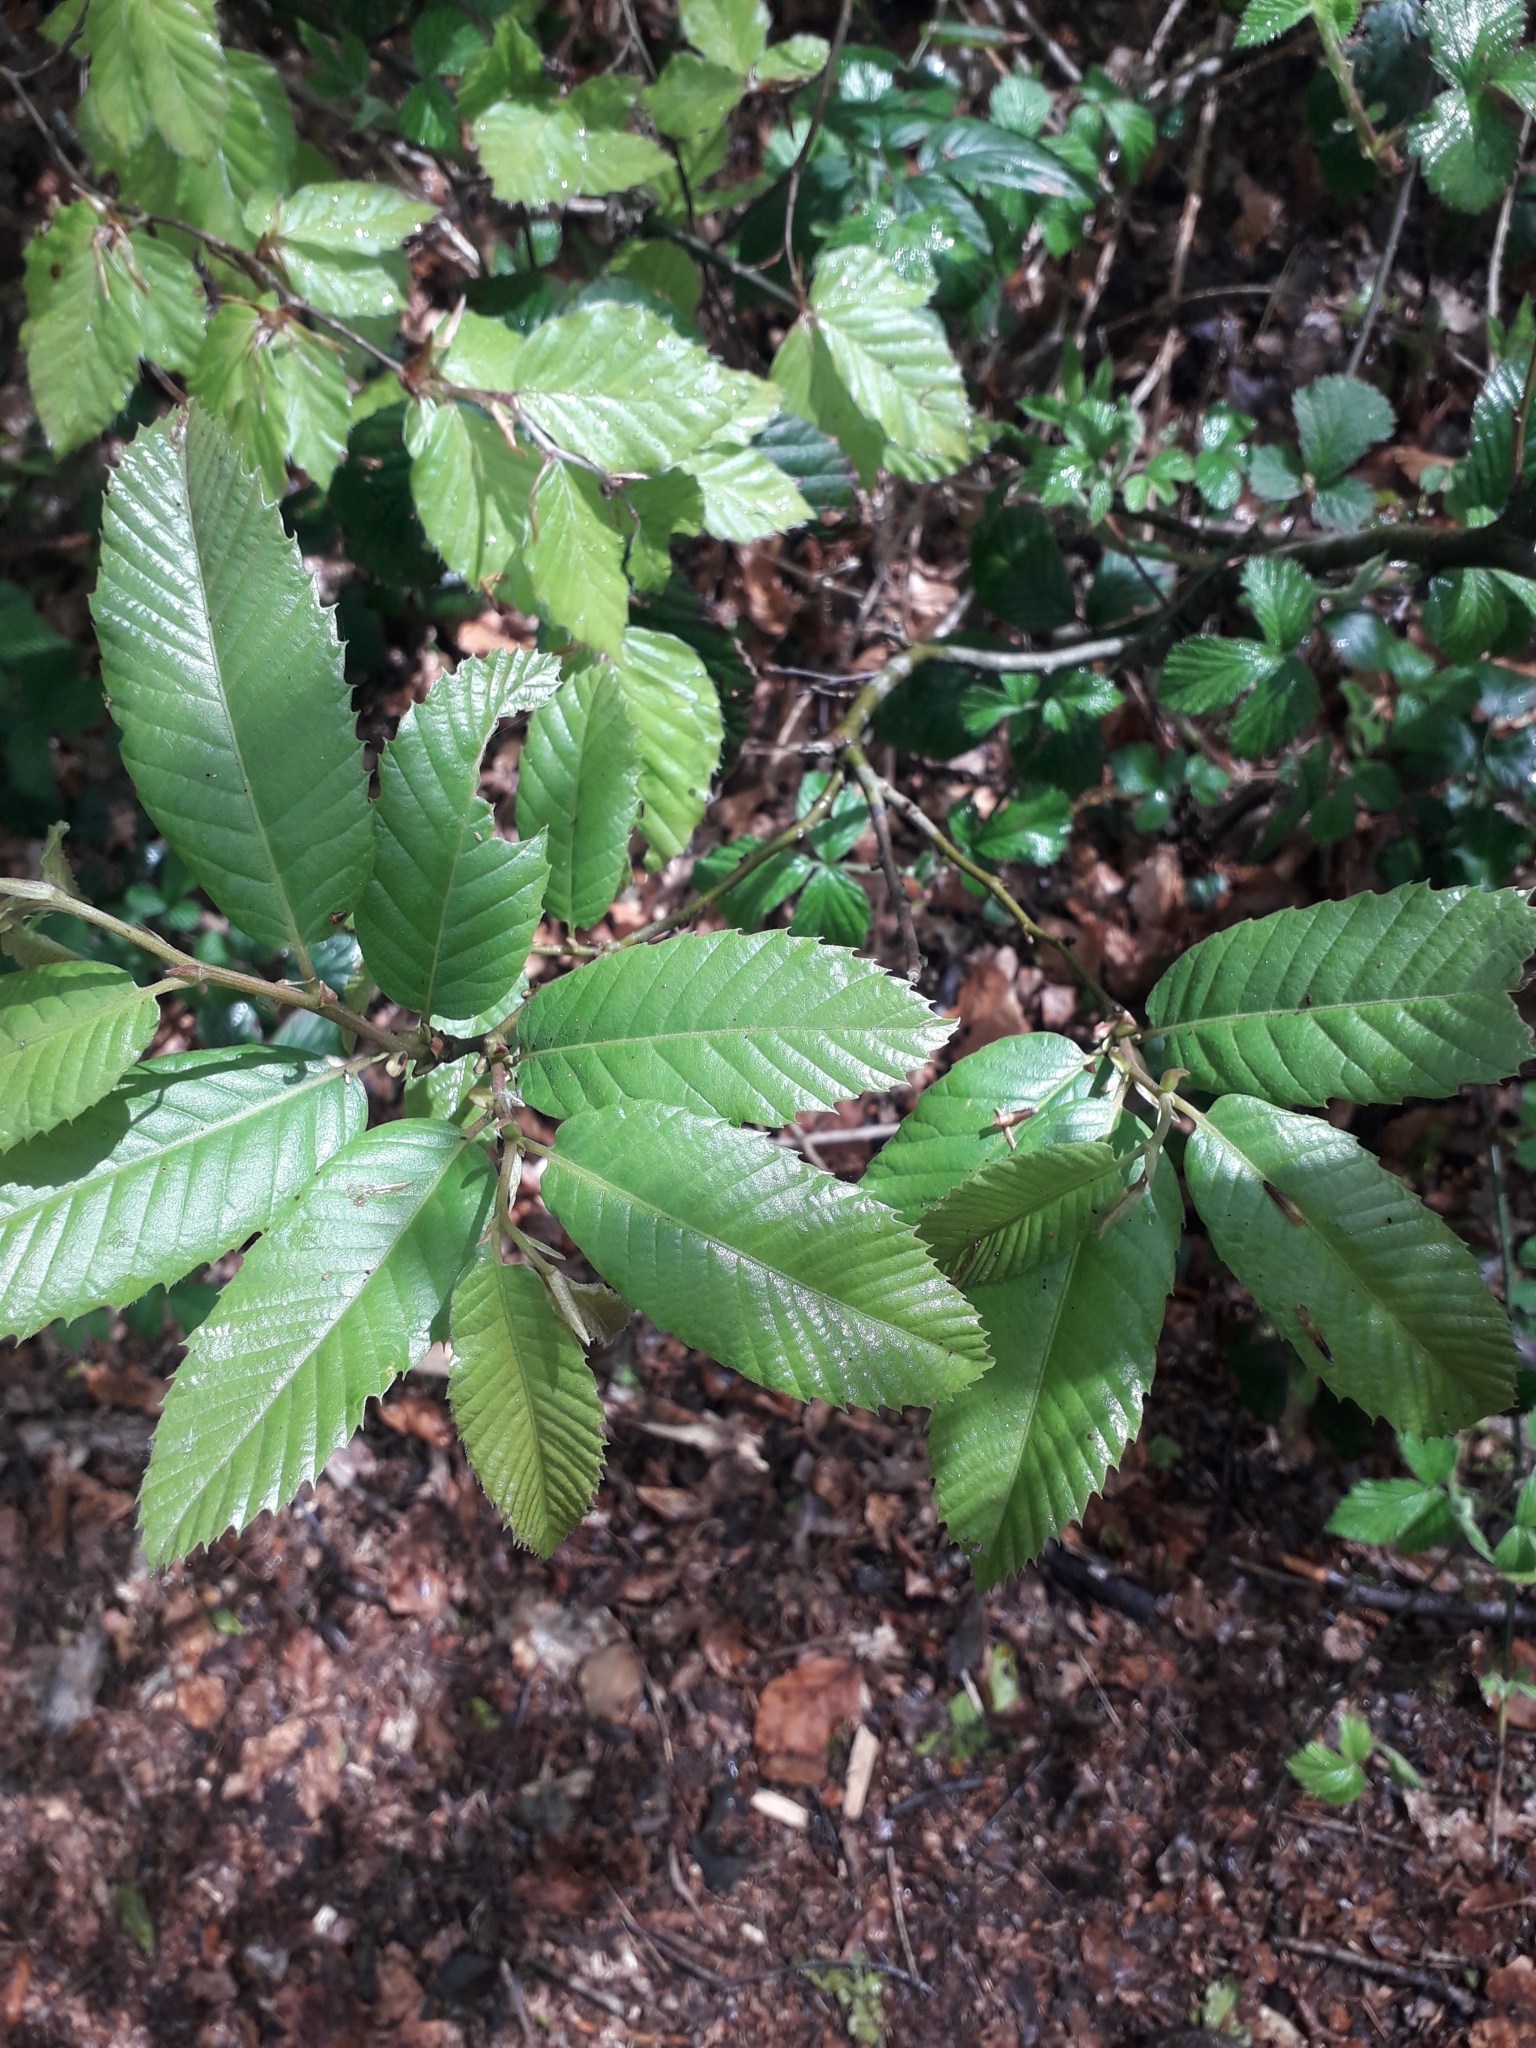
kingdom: Plantae
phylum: Tracheophyta
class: Magnoliopsida
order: Fagales
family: Fagaceae
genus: Castanea
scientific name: Castanea sativa
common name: Sweet chestnut
